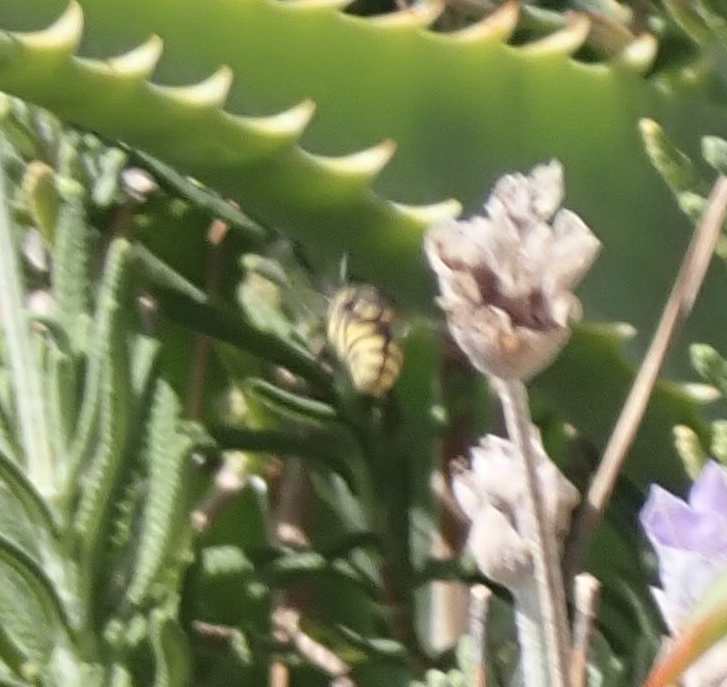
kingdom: Animalia
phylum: Arthropoda
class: Insecta
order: Hymenoptera
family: Megachilidae
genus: Anthidiellum
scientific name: Anthidiellum strigatum
